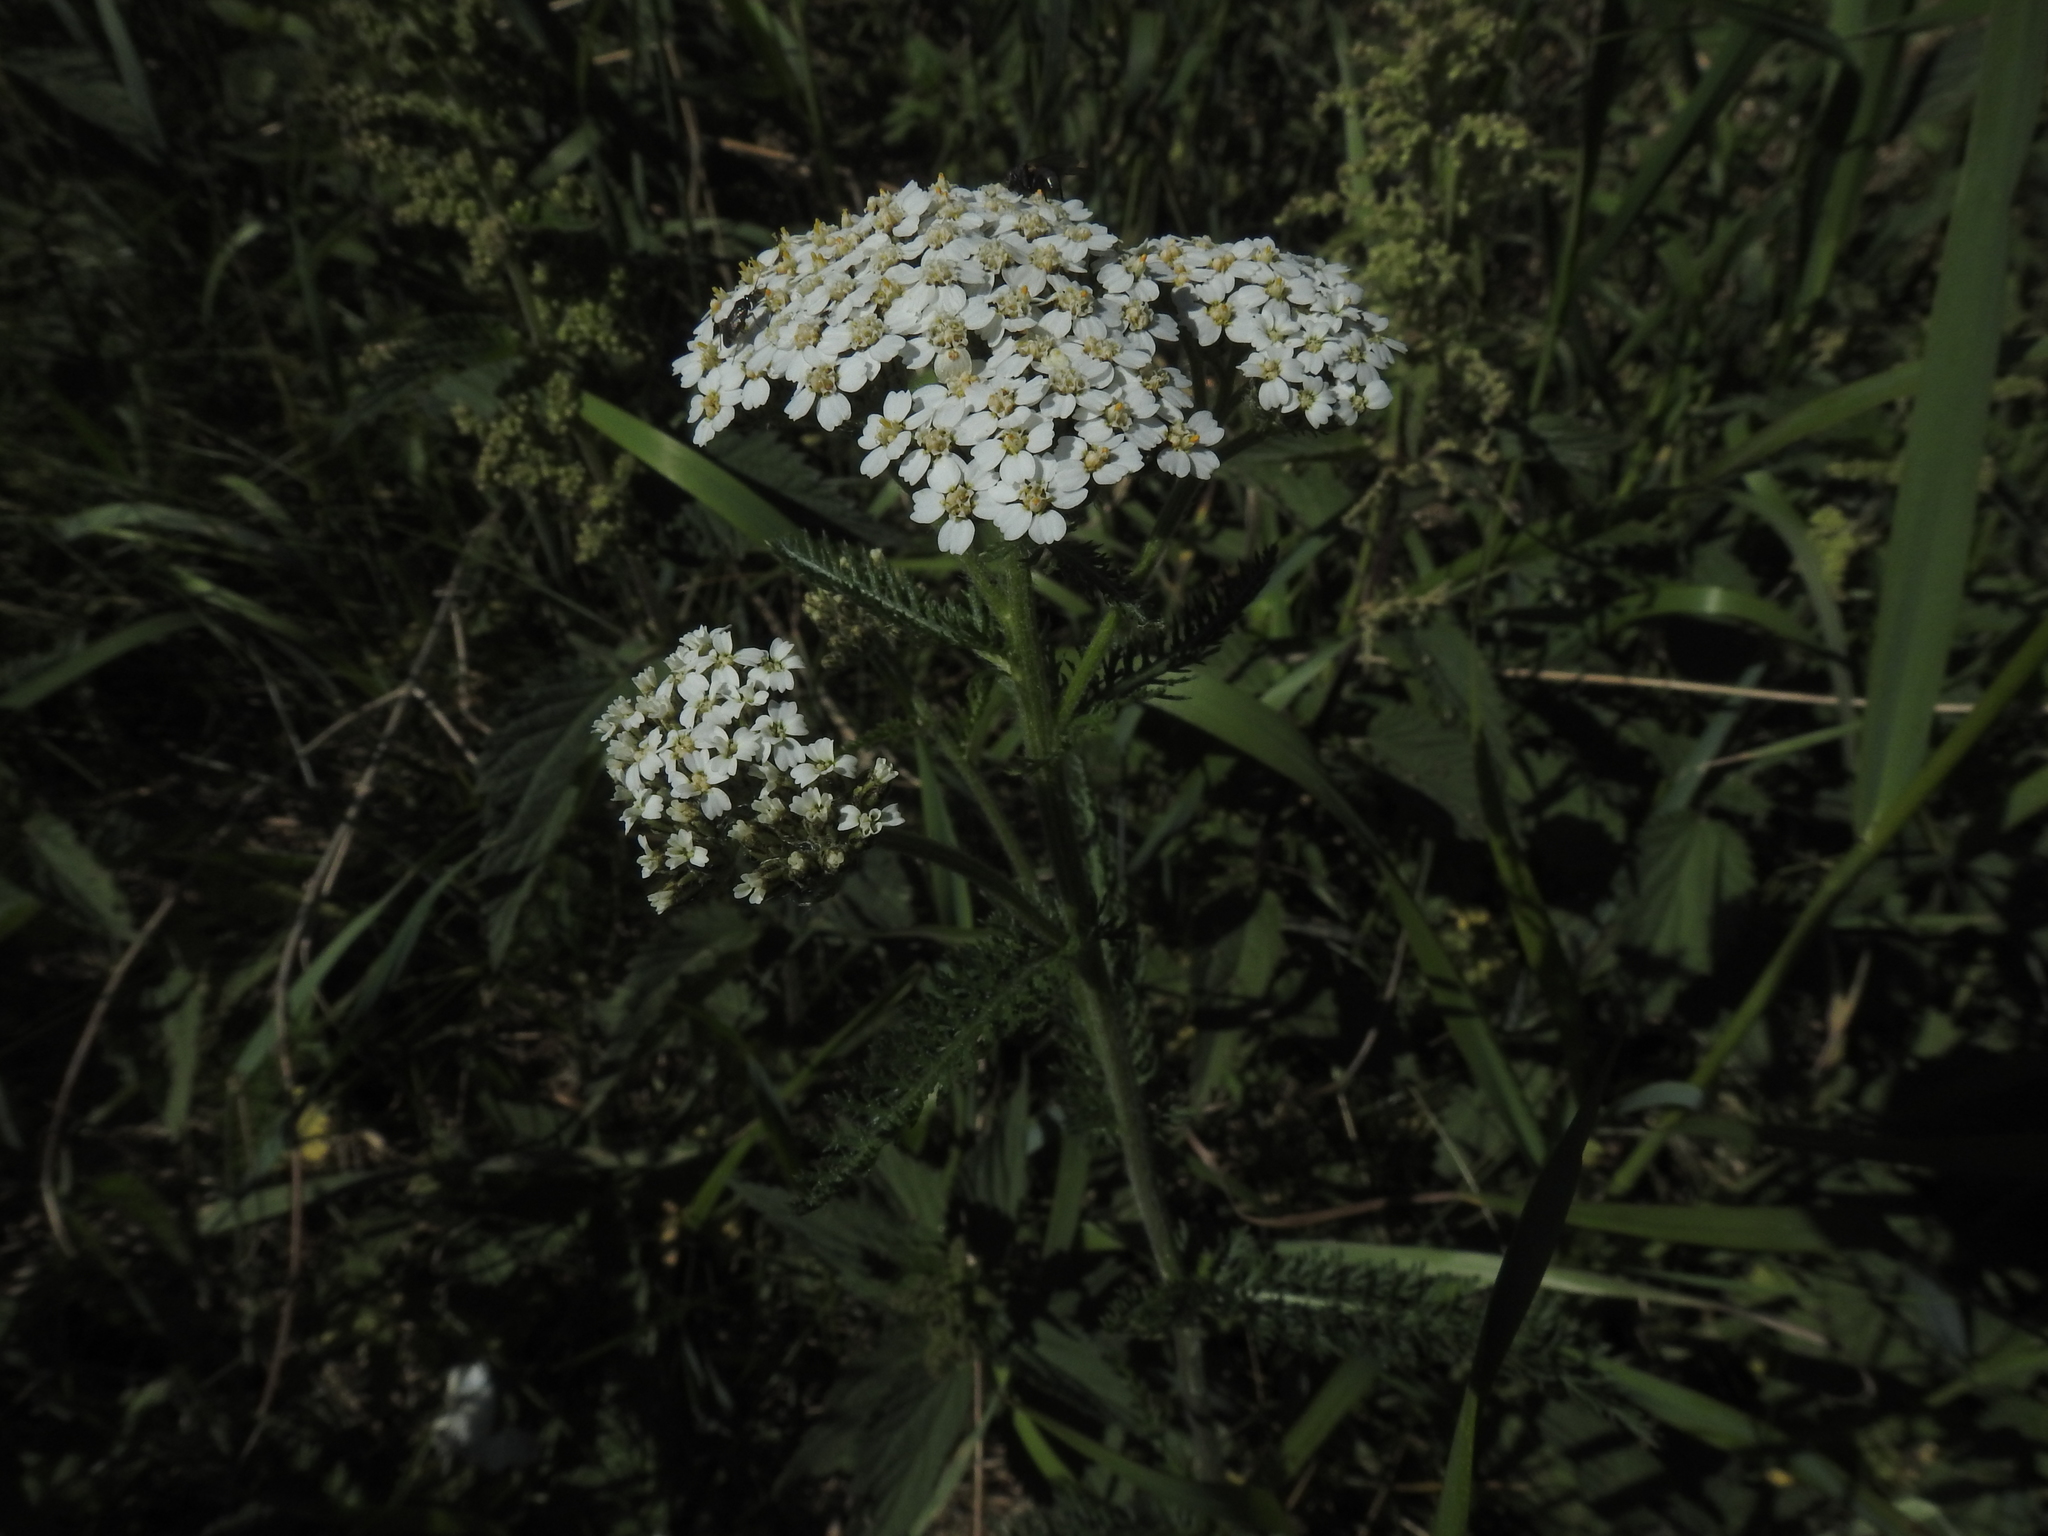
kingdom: Plantae
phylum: Tracheophyta
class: Magnoliopsida
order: Asterales
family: Asteraceae
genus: Achillea
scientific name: Achillea millefolium
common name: Yarrow
